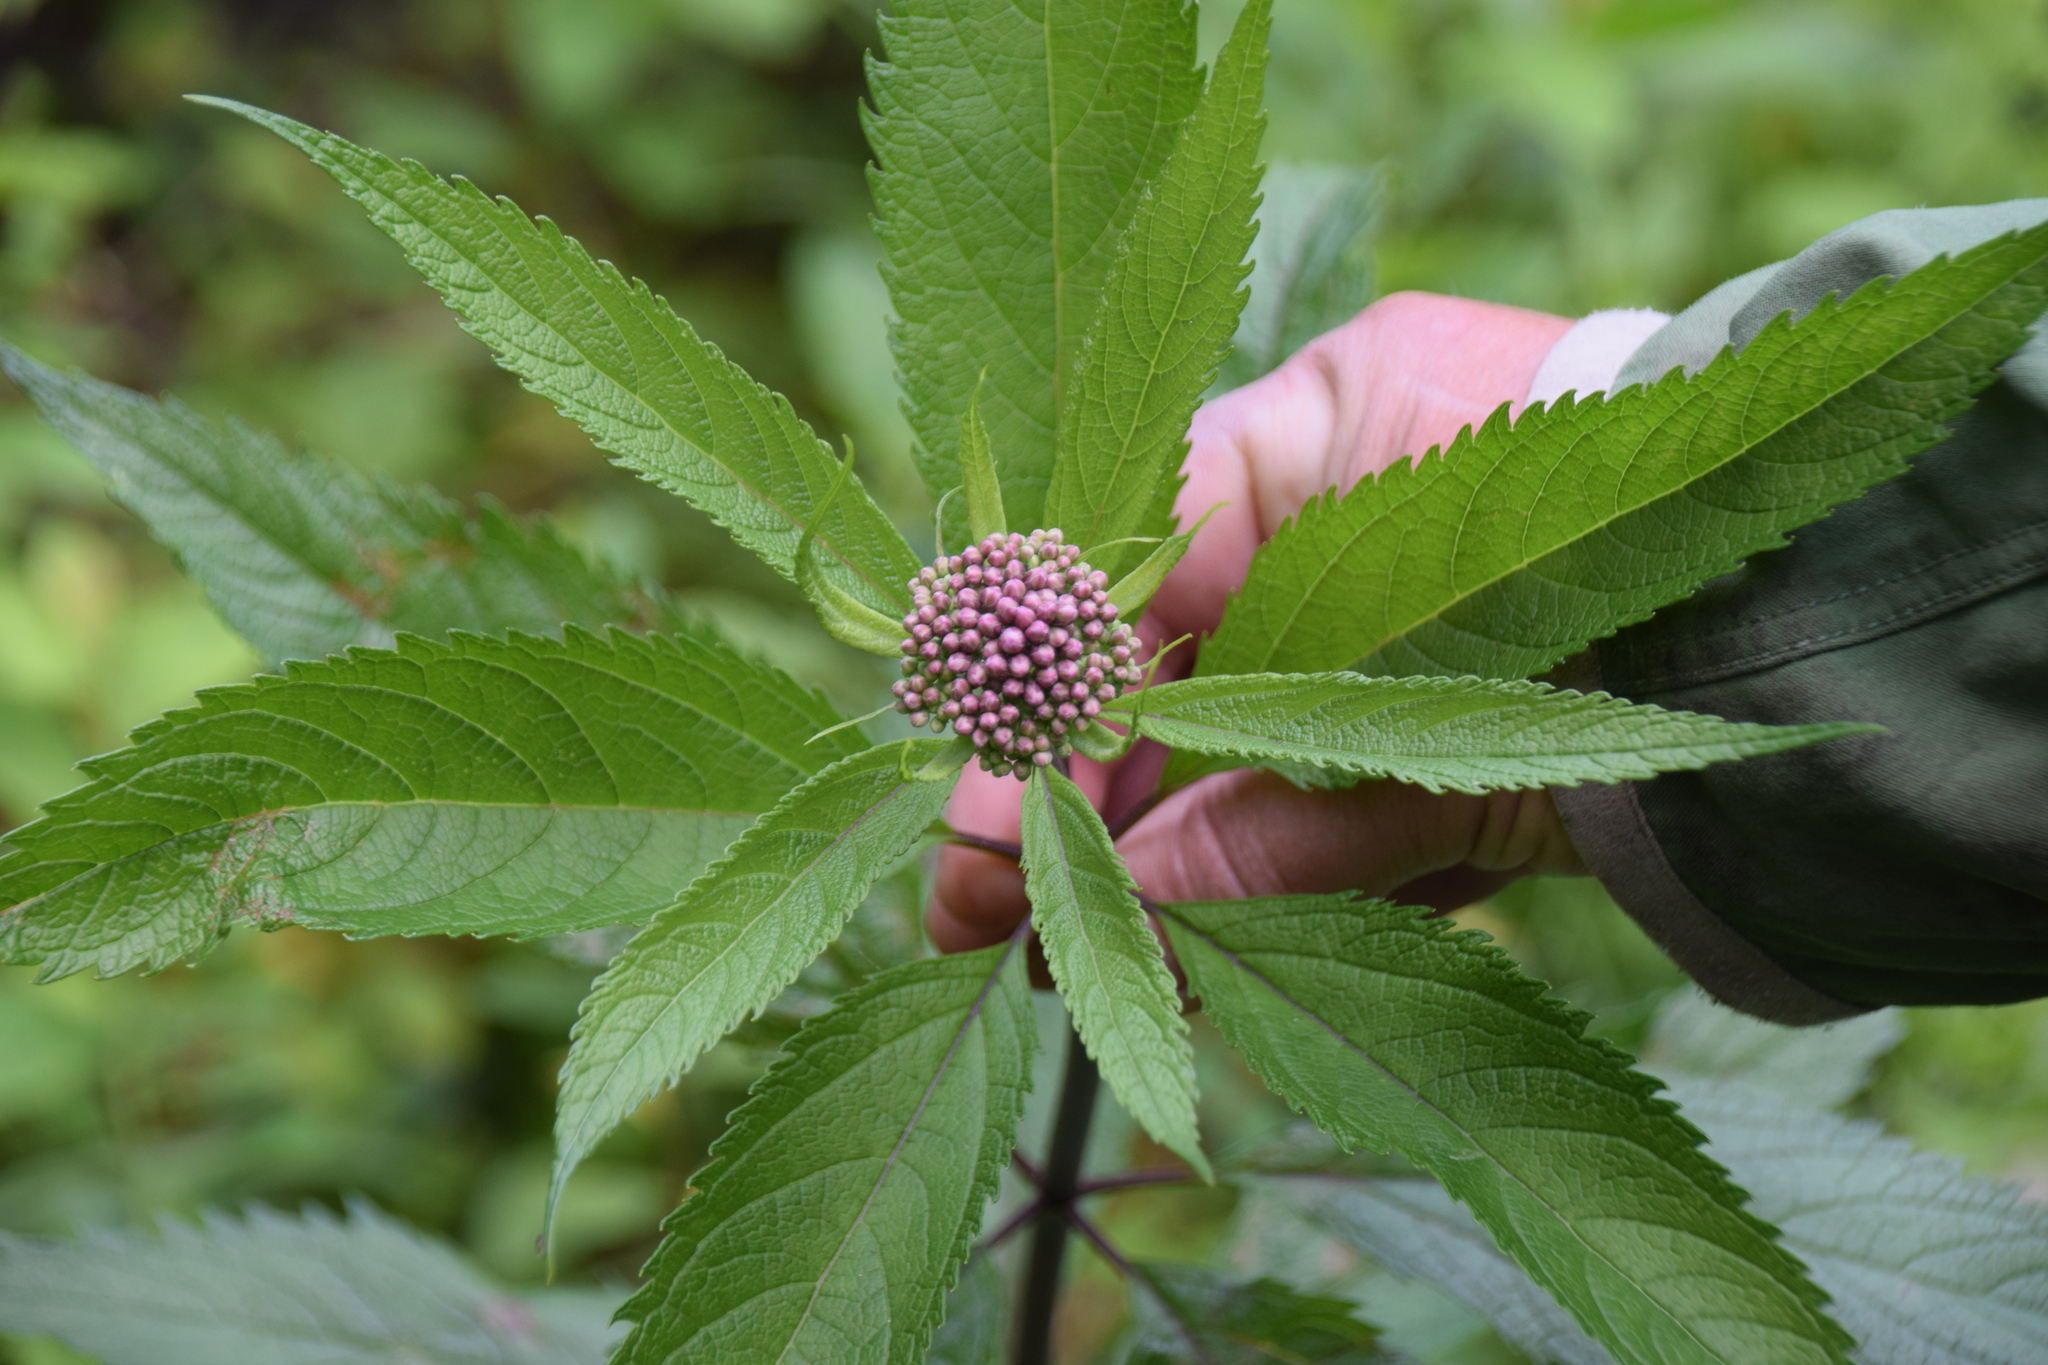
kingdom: Plantae
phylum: Tracheophyta
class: Magnoliopsida
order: Asterales
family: Asteraceae
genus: Eutrochium
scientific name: Eutrochium maculatum
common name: Spotted joe pye weed
